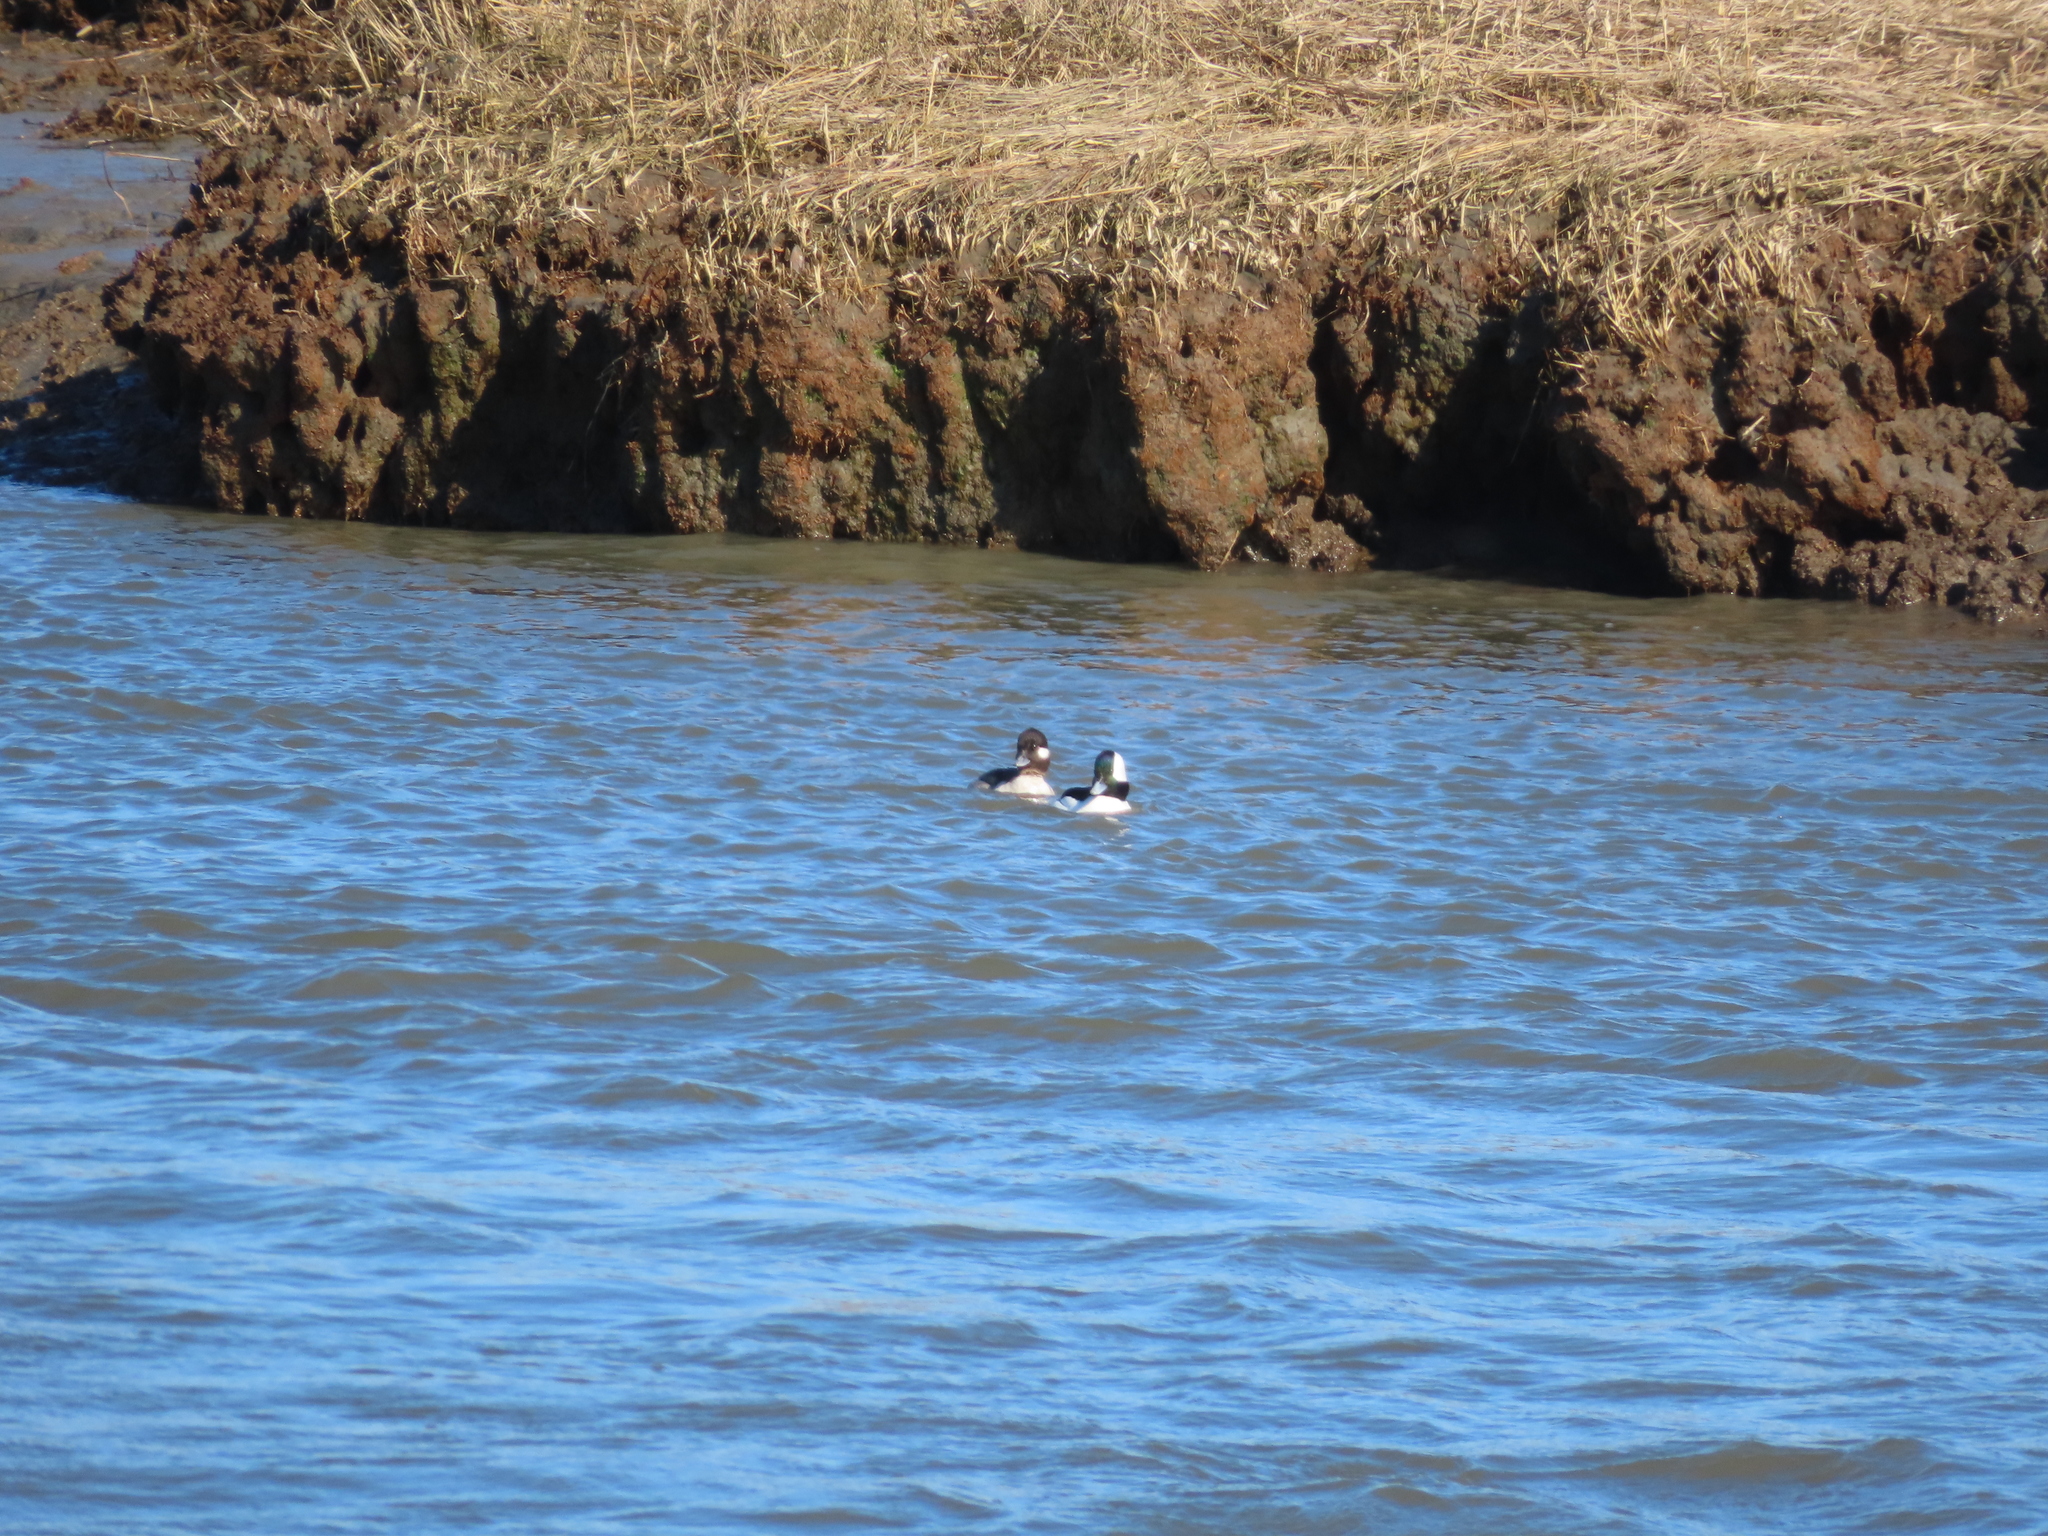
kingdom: Animalia
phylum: Chordata
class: Aves
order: Anseriformes
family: Anatidae
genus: Bucephala
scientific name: Bucephala albeola
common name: Bufflehead
